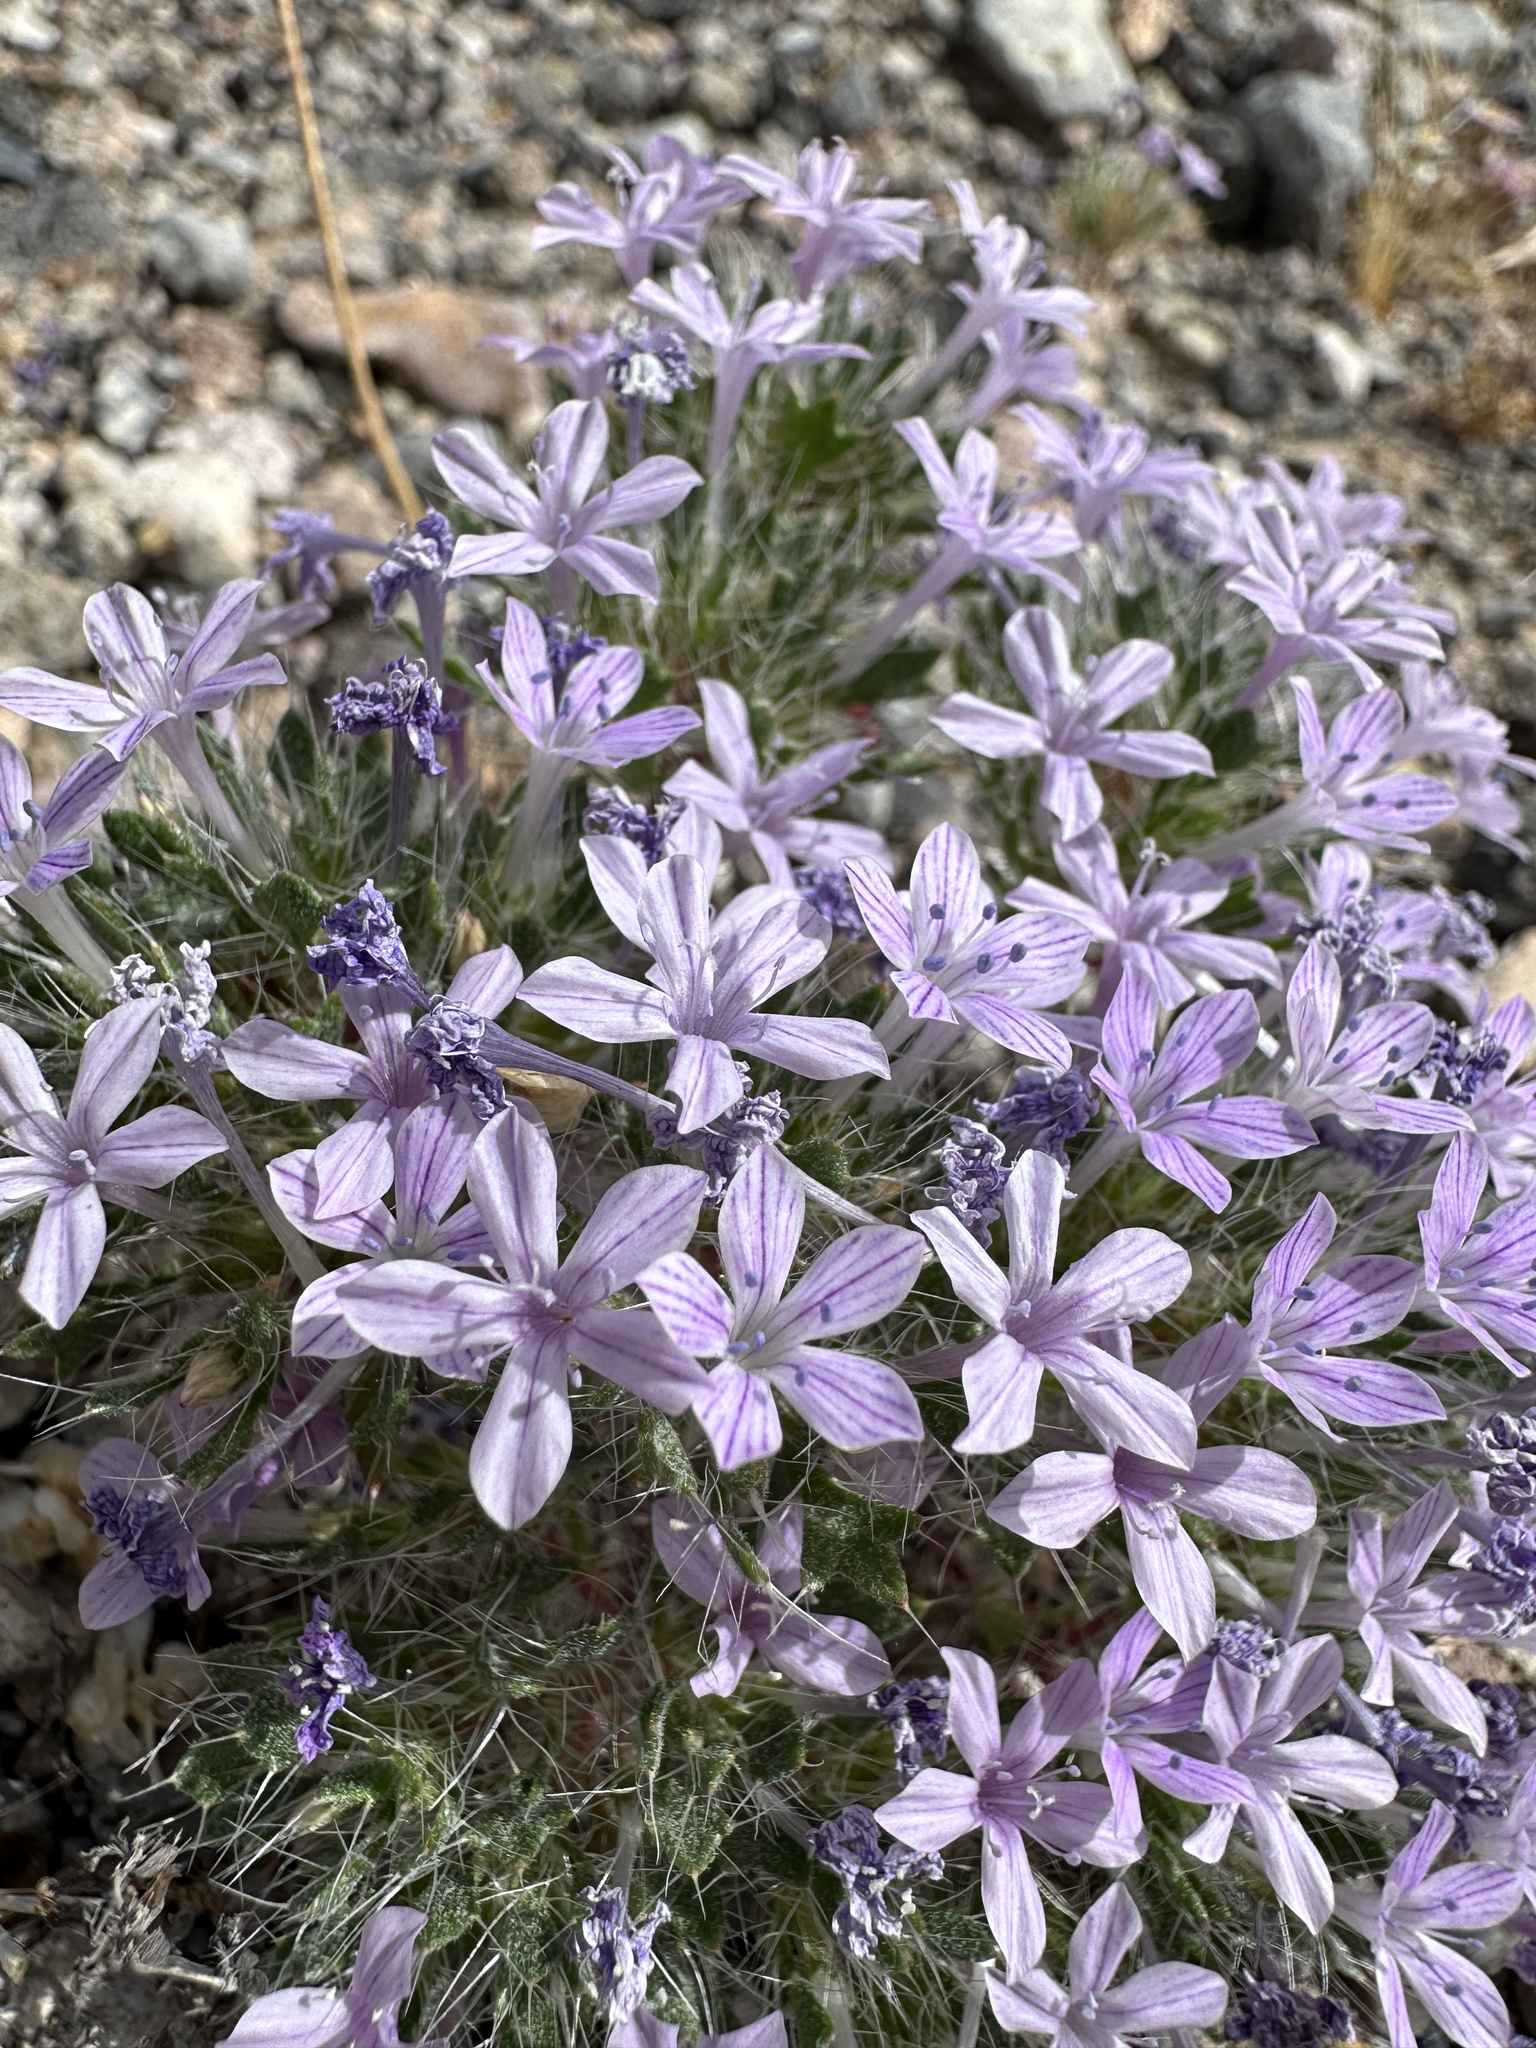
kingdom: Plantae
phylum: Tracheophyta
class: Magnoliopsida
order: Ericales
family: Polemoniaceae
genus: Langloisia
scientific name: Langloisia setosissima
